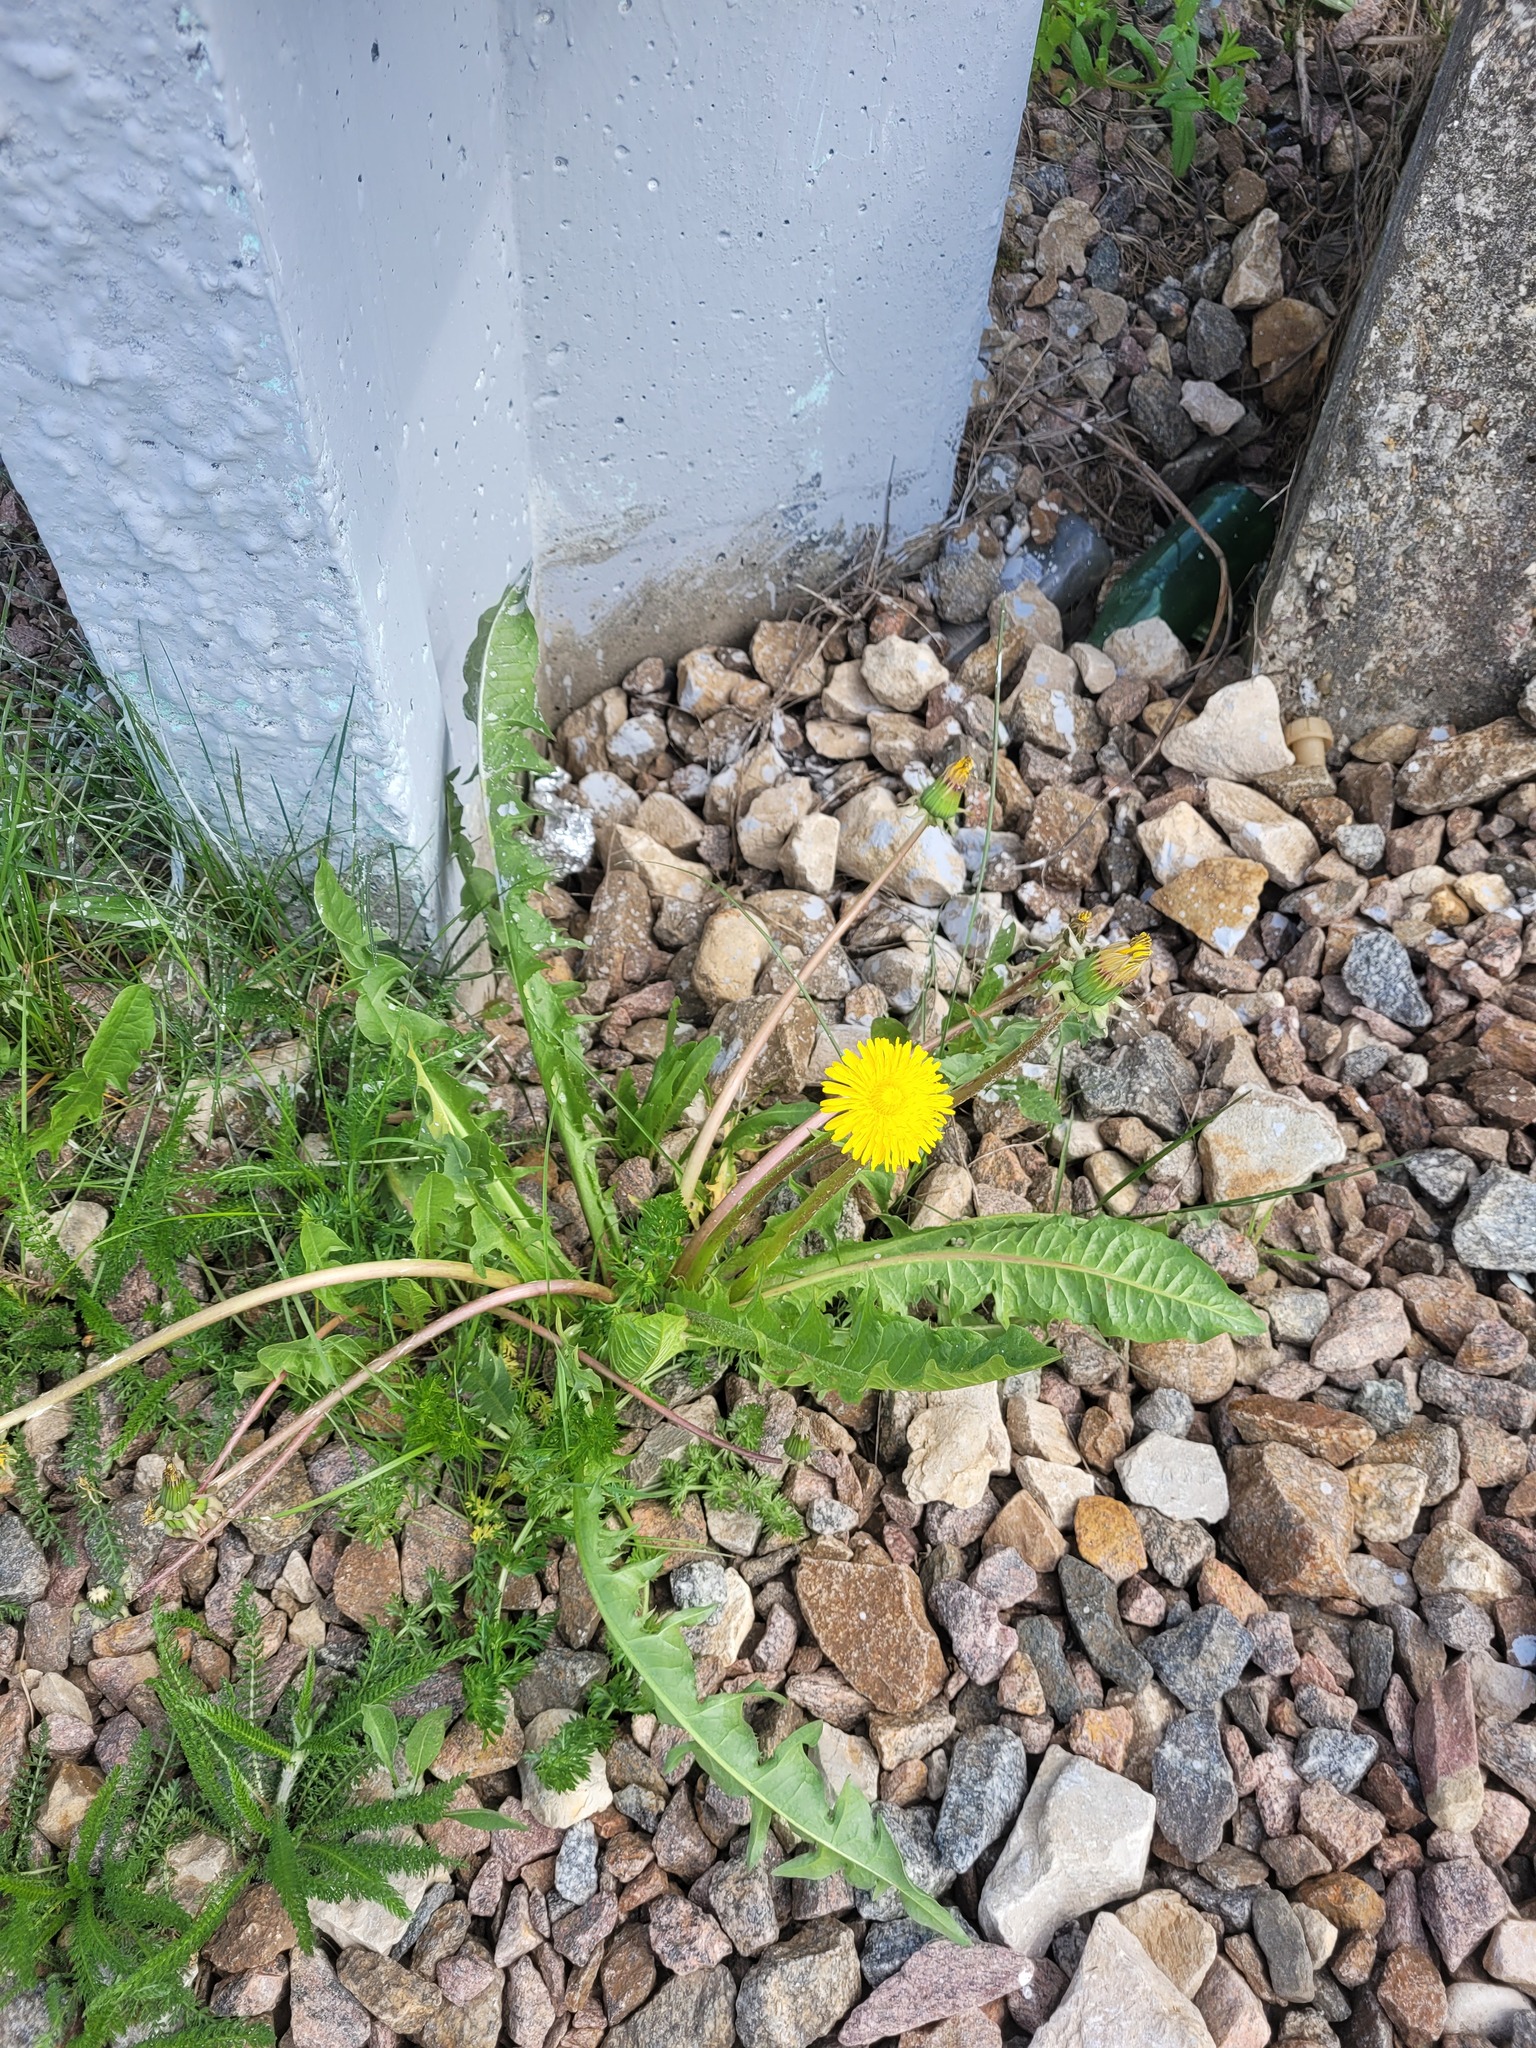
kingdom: Plantae
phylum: Tracheophyta
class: Magnoliopsida
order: Asterales
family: Asteraceae
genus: Taraxacum
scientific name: Taraxacum officinale
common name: Common dandelion
